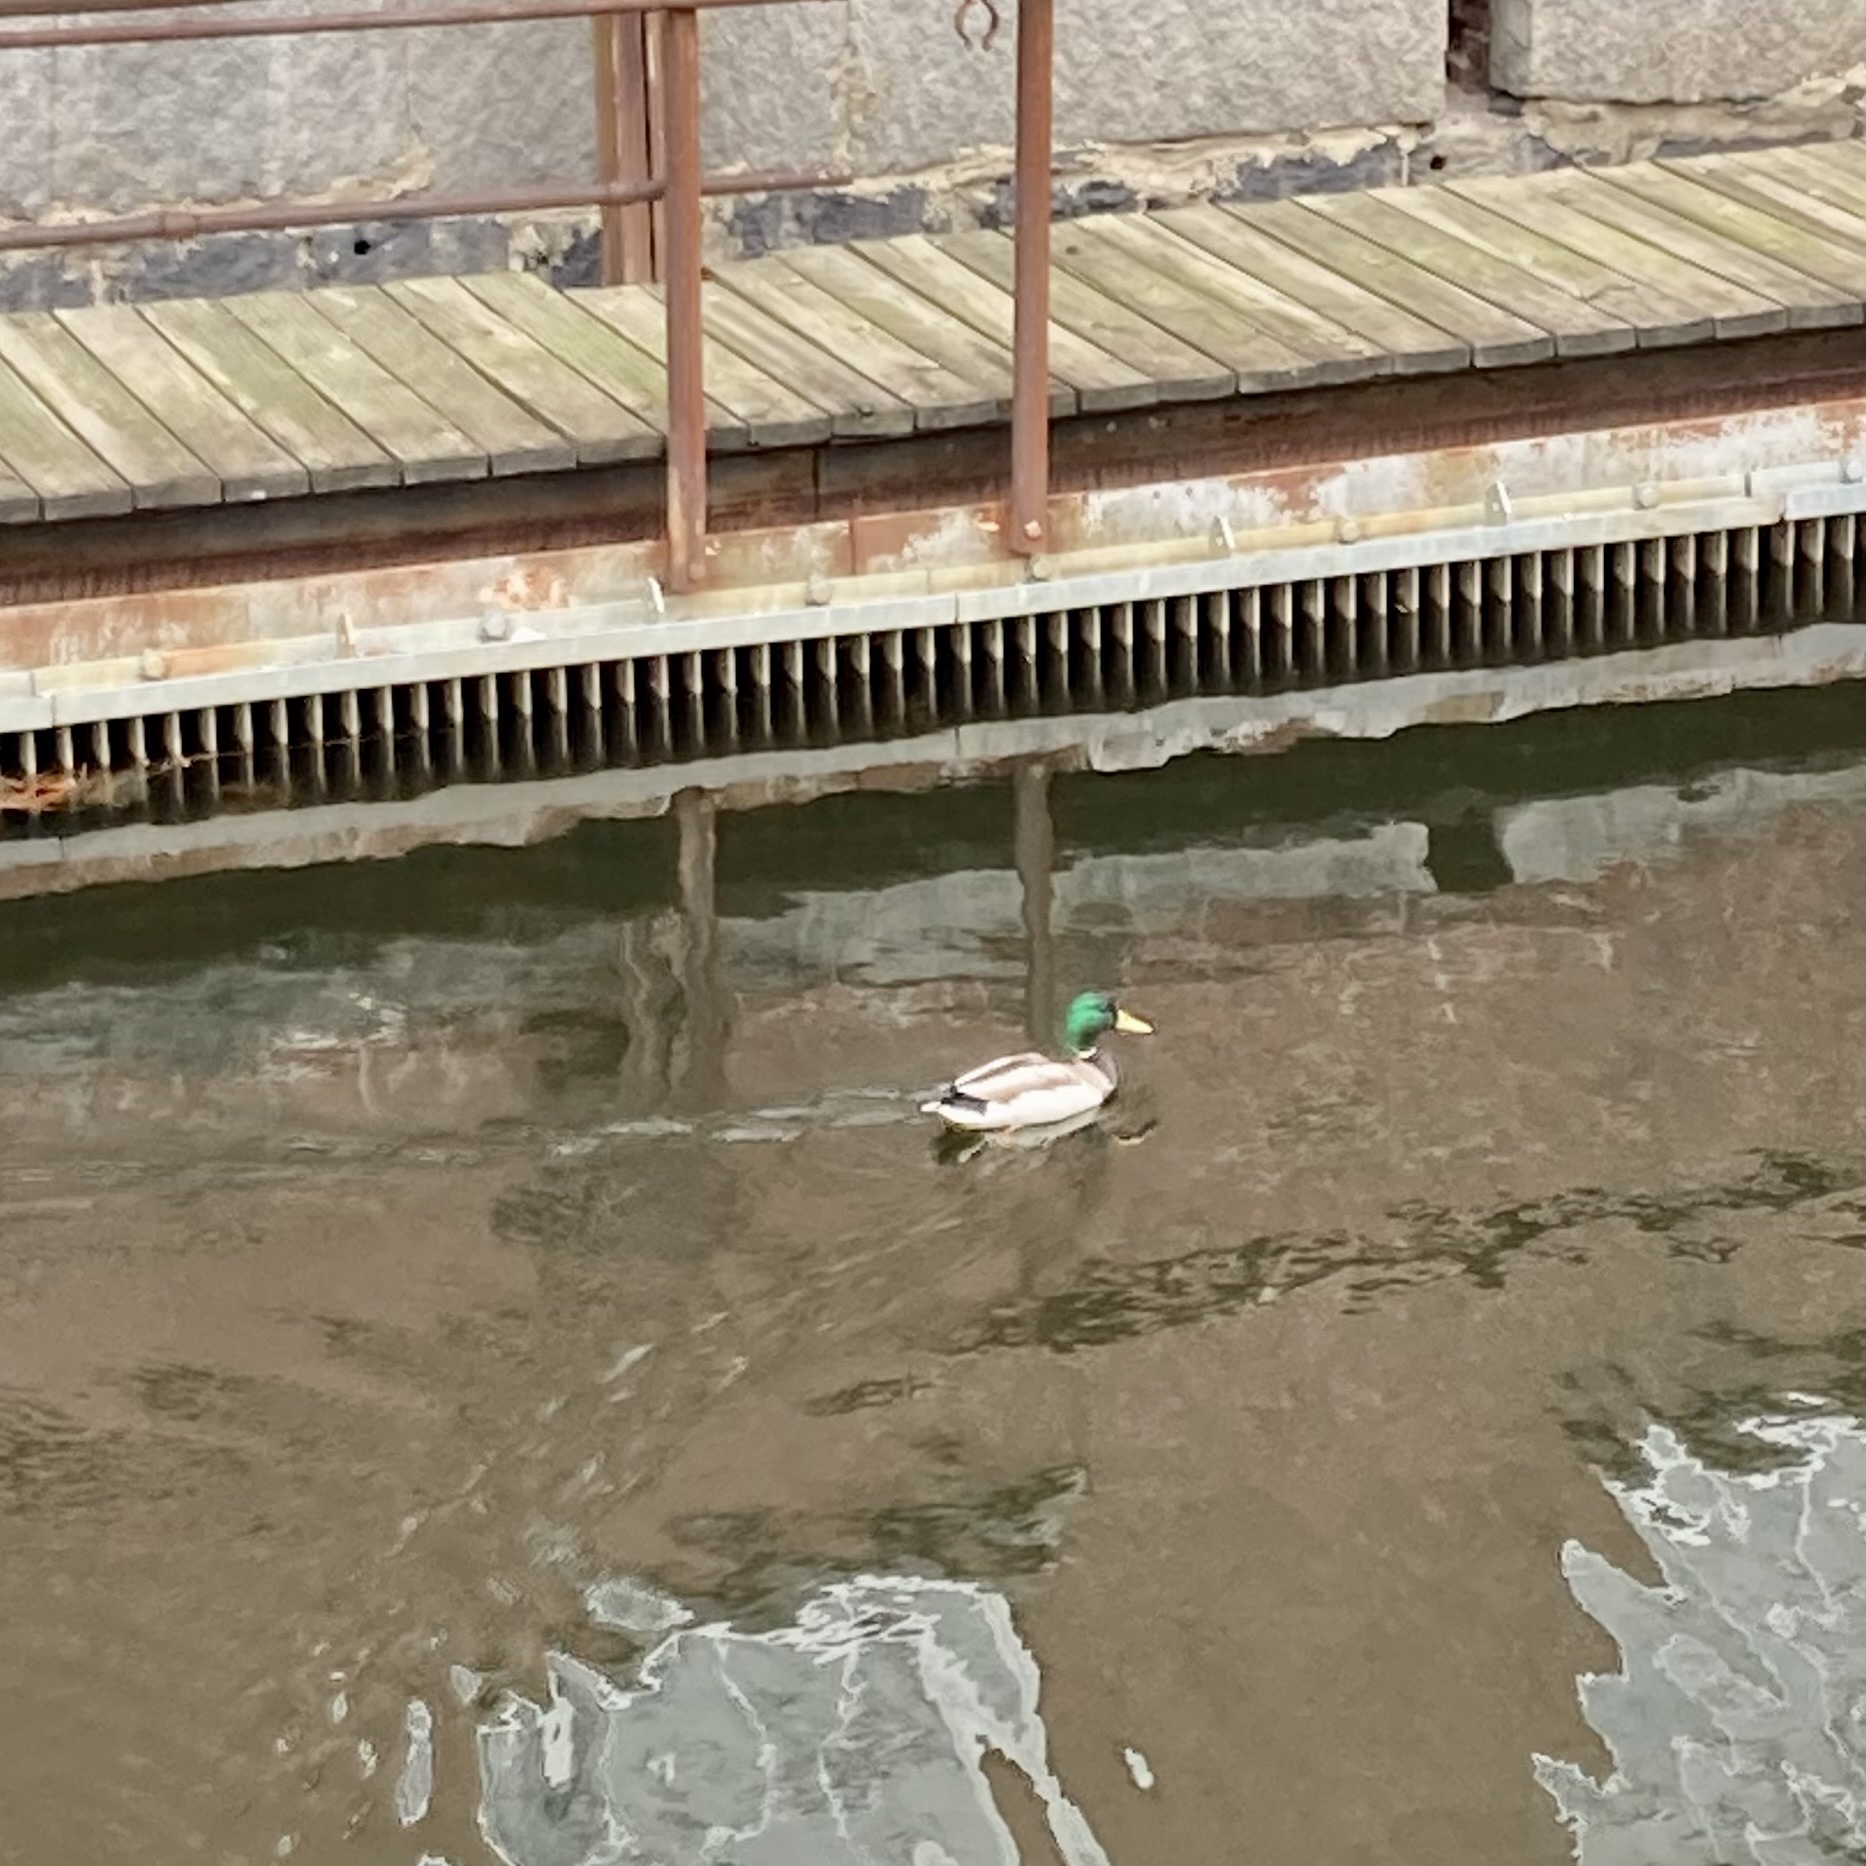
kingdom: Animalia
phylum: Chordata
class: Aves
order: Anseriformes
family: Anatidae
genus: Anas
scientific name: Anas platyrhynchos
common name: Mallard
